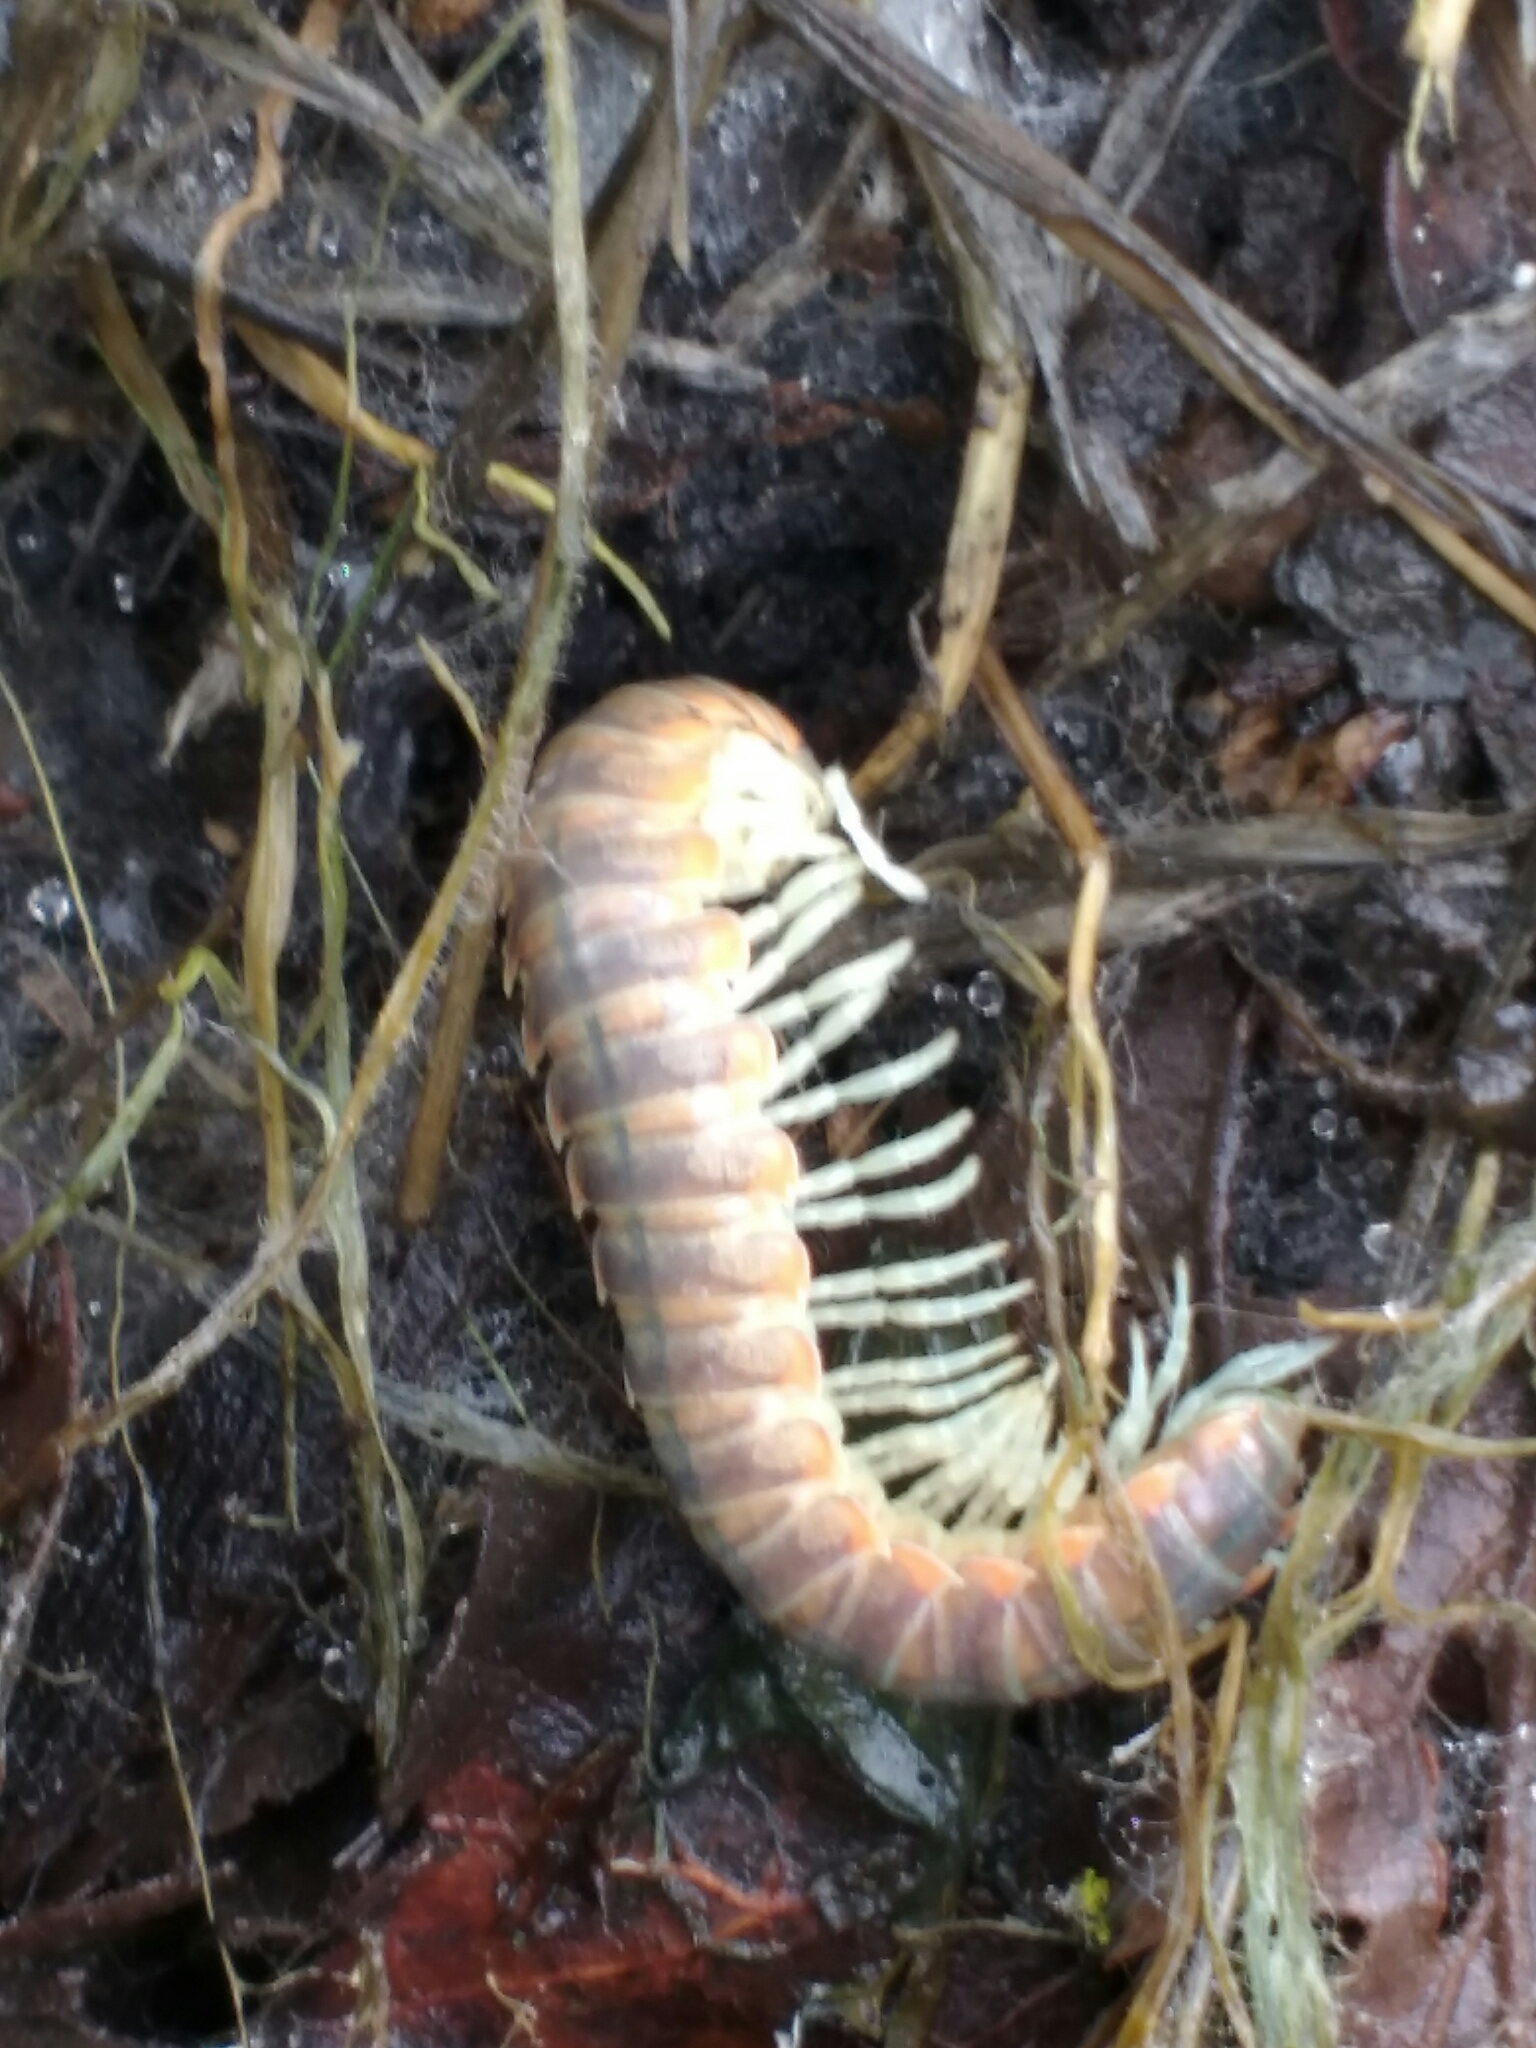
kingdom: Animalia
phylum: Arthropoda
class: Diplopoda
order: Polydesmida
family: Xystodesmidae
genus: Xystocheir
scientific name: Xystocheir dissecta
